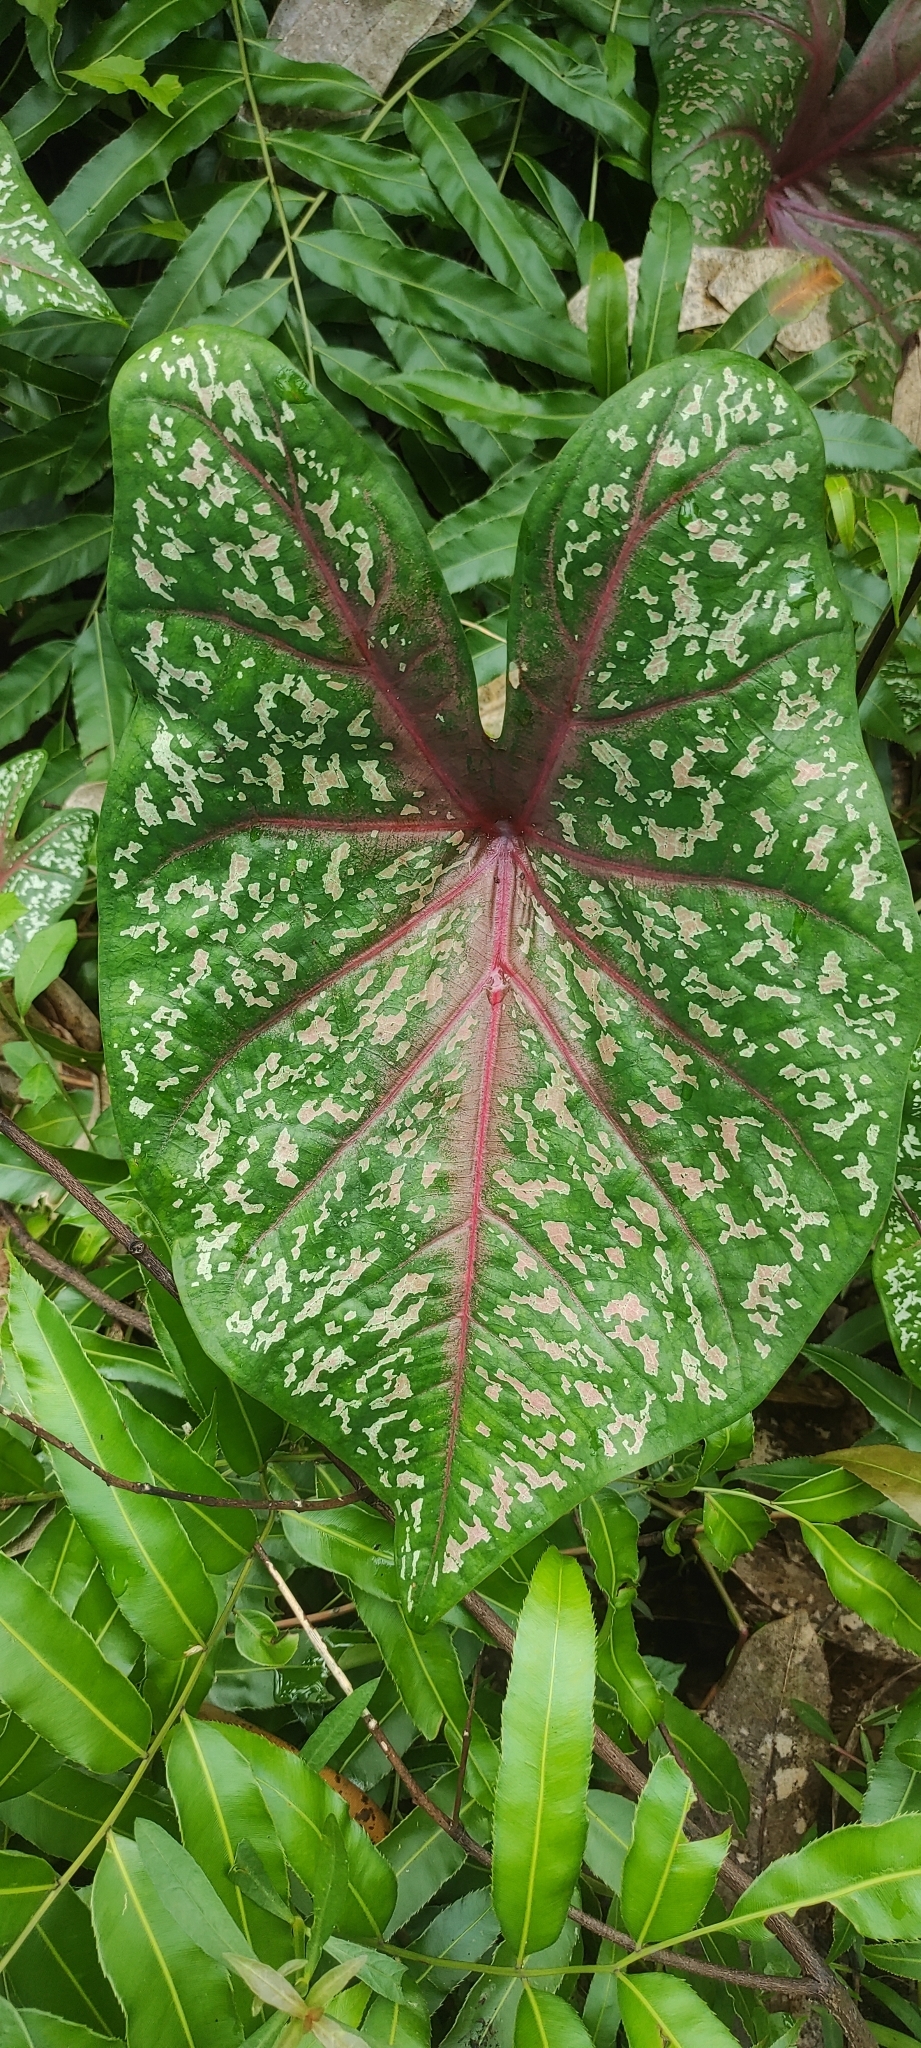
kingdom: Plantae
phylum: Tracheophyta
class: Liliopsida
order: Alismatales
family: Araceae
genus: Caladium
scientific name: Caladium bicolor
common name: Artist's pallet
